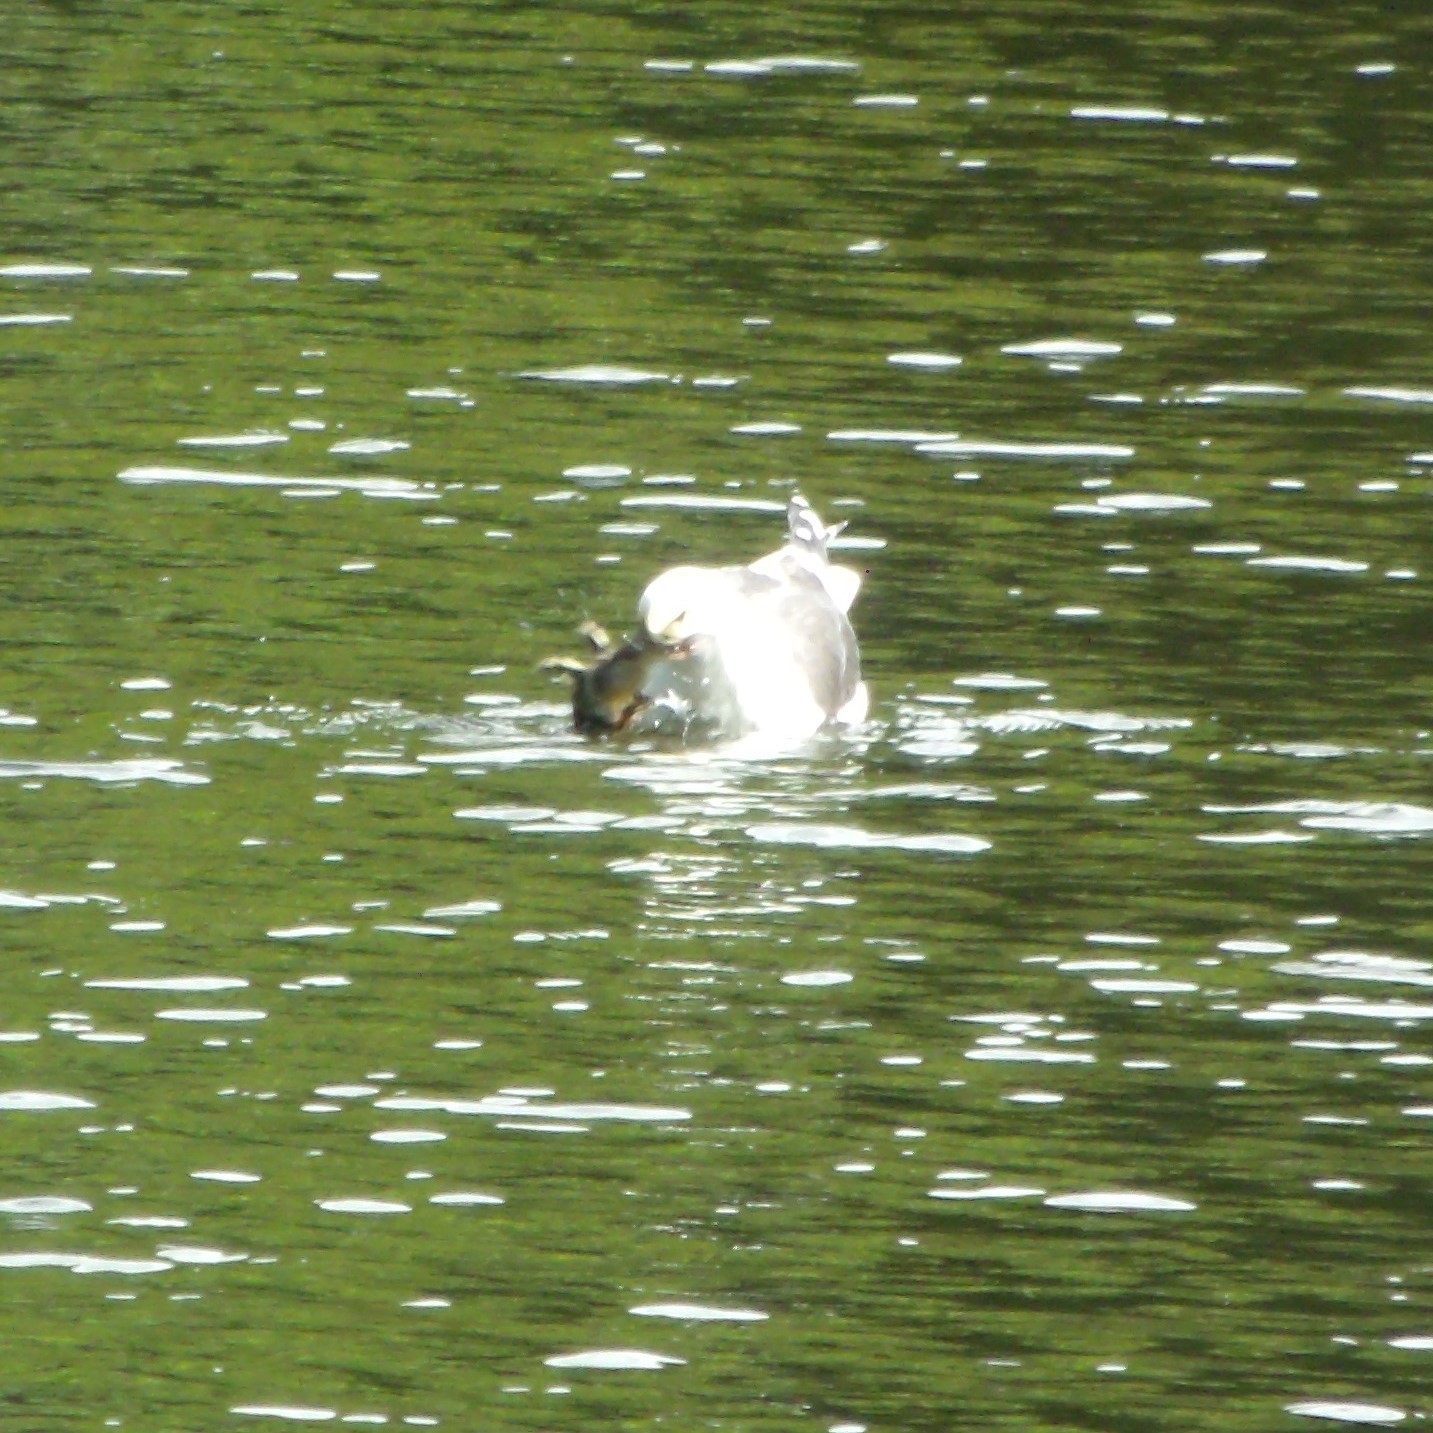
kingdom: Animalia
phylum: Chordata
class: Aves
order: Charadriiformes
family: Laridae
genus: Larus
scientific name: Larus dominicanus
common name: Kelp gull
